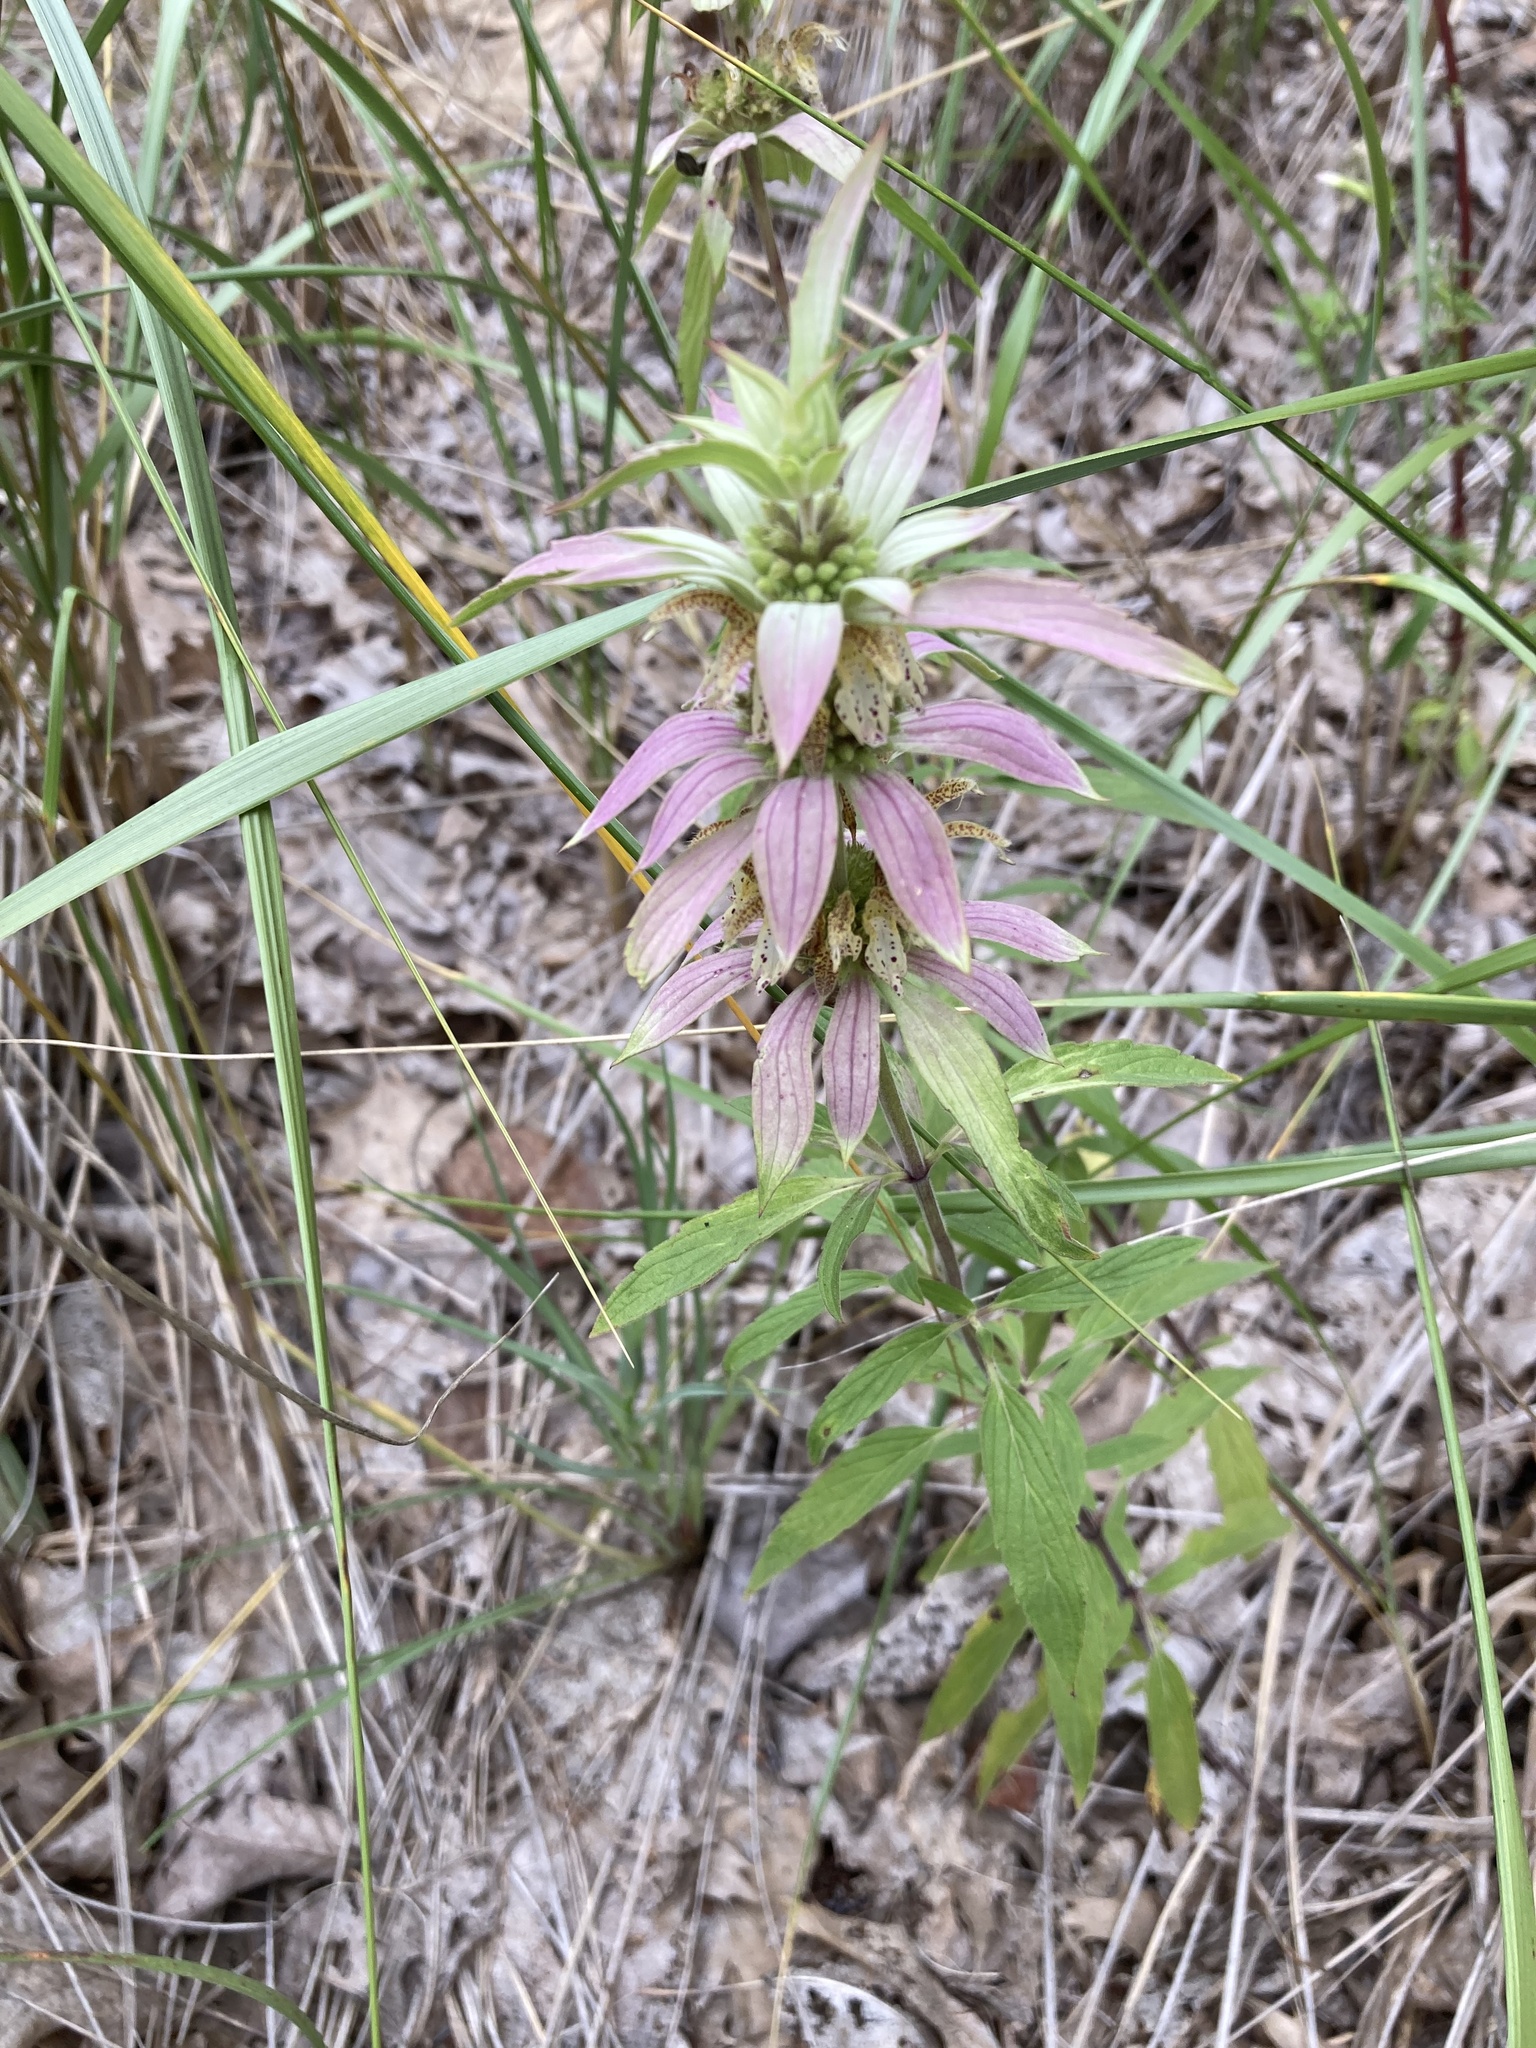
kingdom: Plantae
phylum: Tracheophyta
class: Magnoliopsida
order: Lamiales
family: Lamiaceae
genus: Monarda
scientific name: Monarda punctata
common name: Dotted monarda
